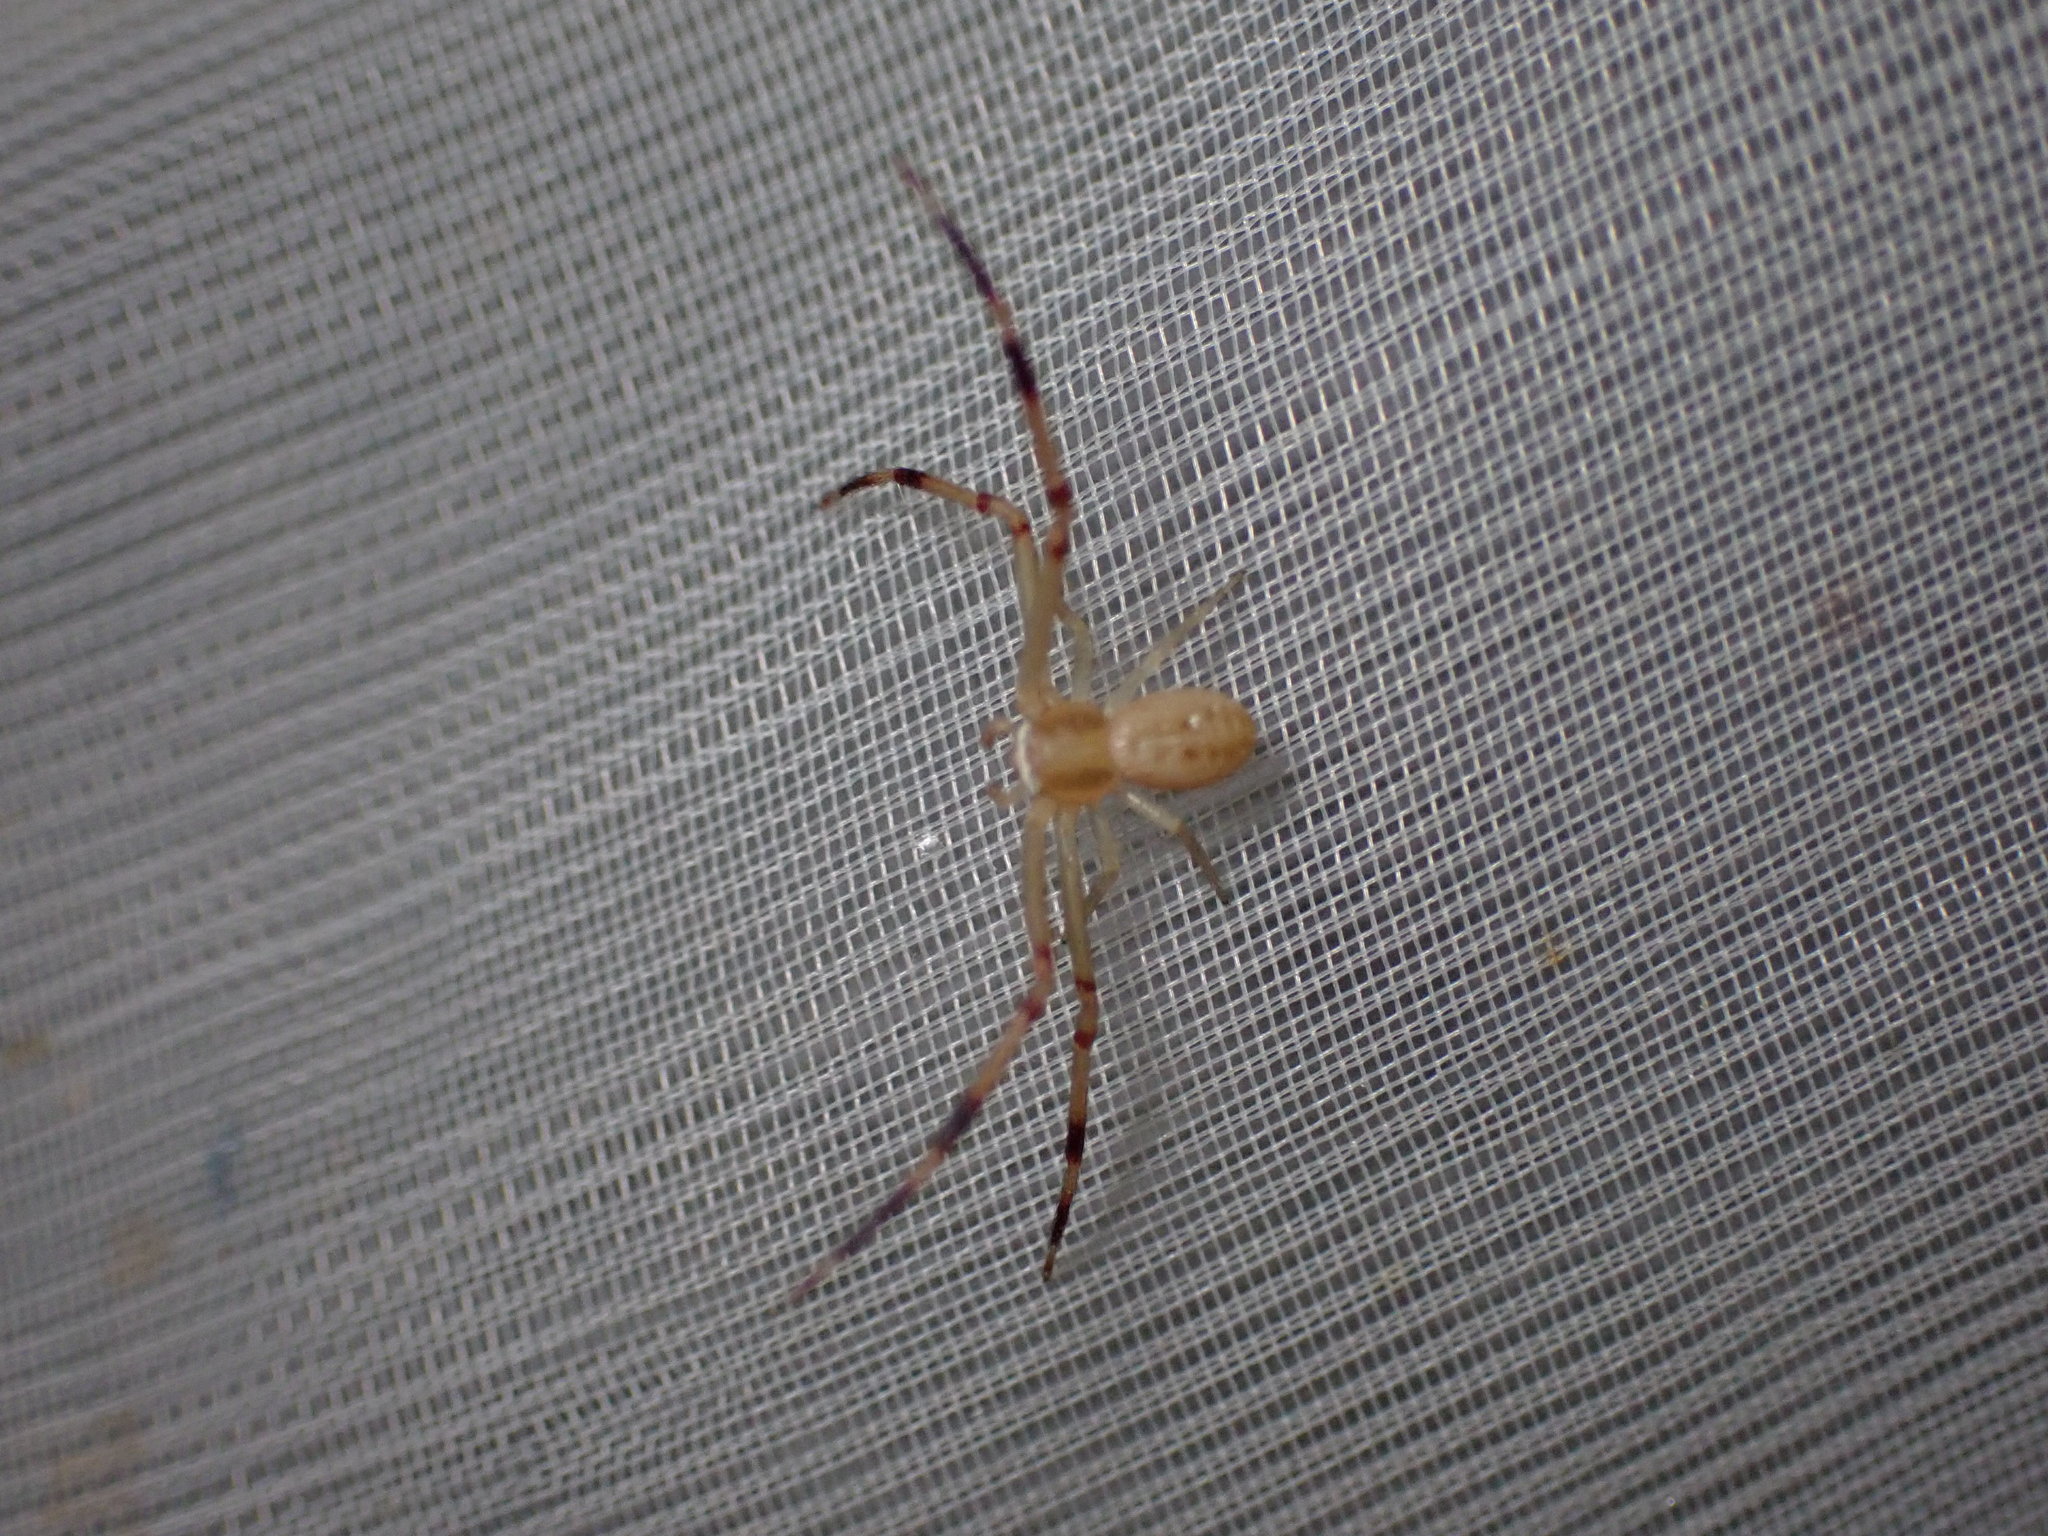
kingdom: Animalia
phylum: Arthropoda
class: Arachnida
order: Araneae
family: Thomisidae
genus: Runcinia
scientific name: Runcinia grammica
